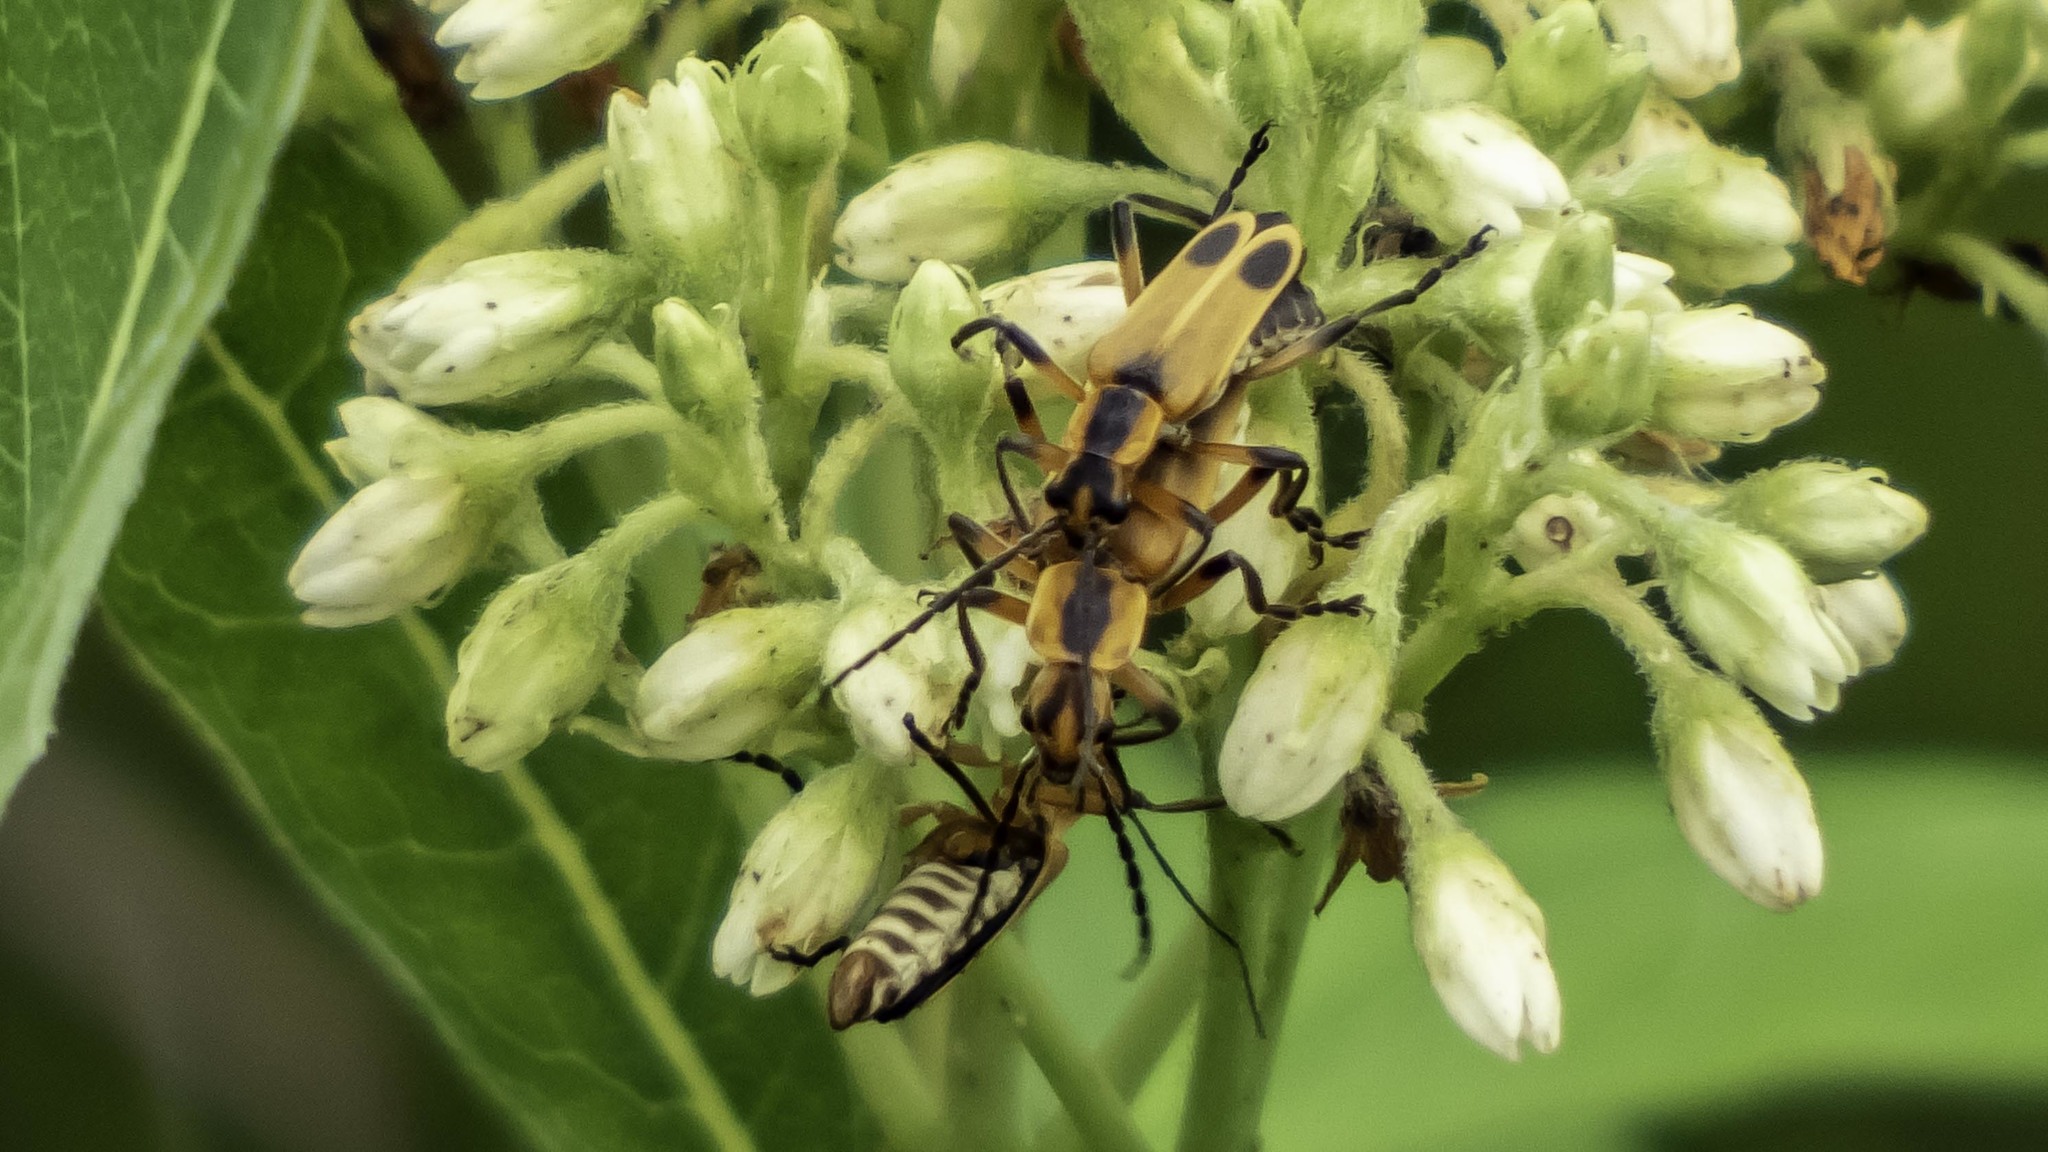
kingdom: Animalia
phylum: Arthropoda
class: Insecta
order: Coleoptera
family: Cantharidae
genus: Chauliognathus
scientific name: Chauliognathus marginatus
